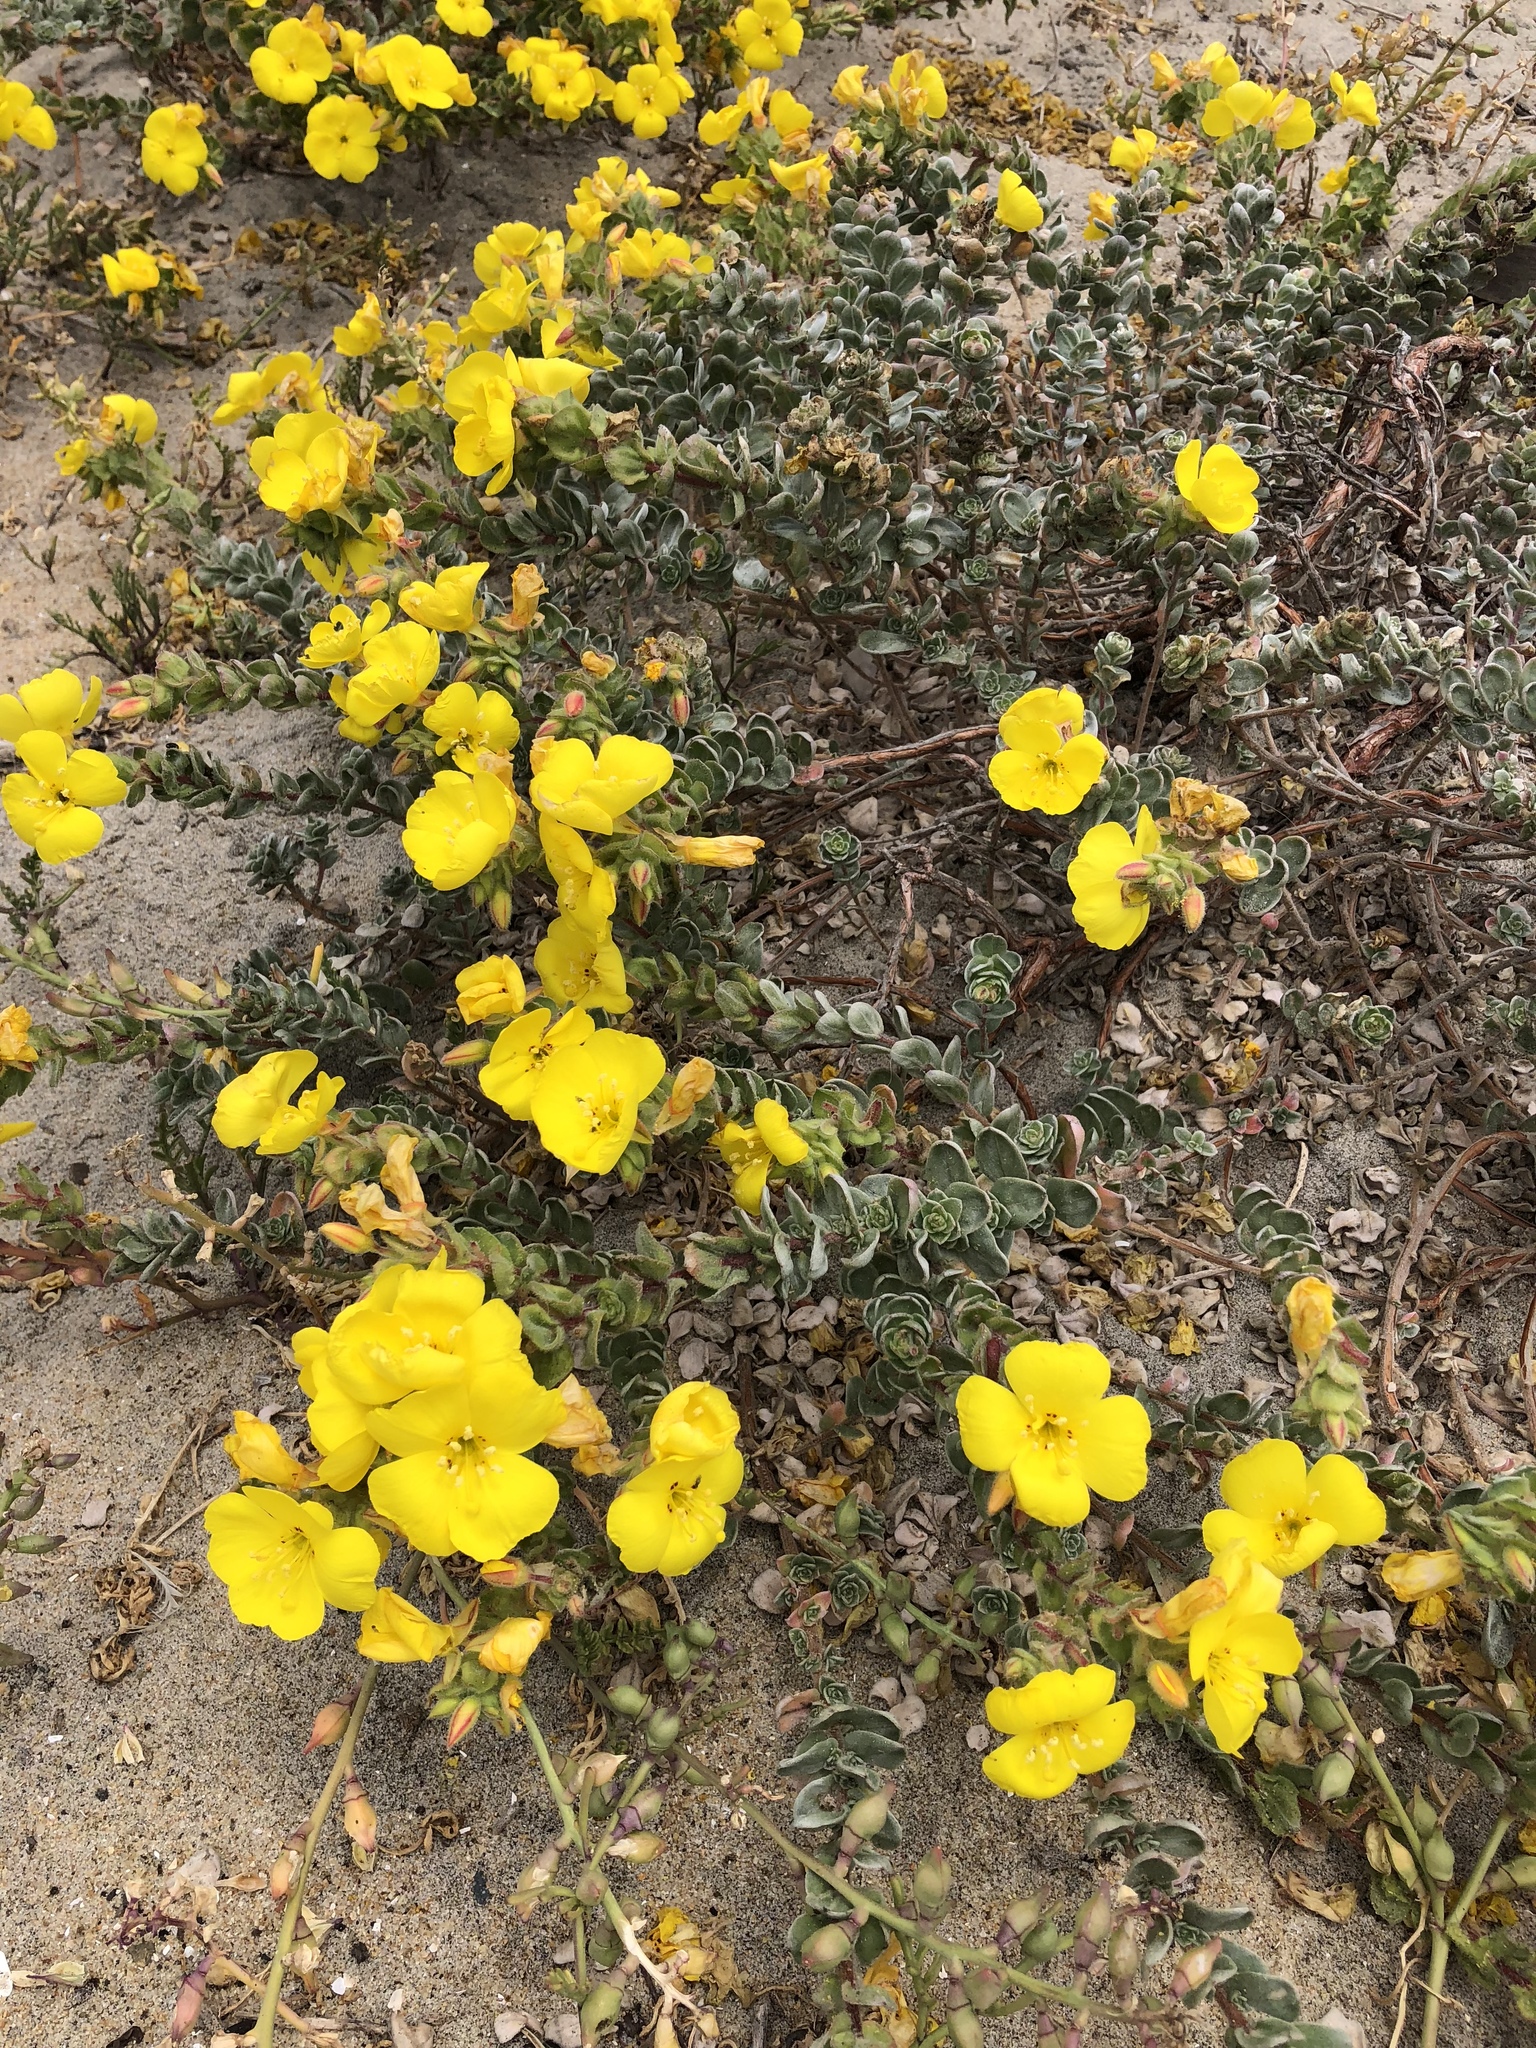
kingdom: Plantae
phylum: Tracheophyta
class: Magnoliopsida
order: Myrtales
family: Onagraceae
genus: Camissoniopsis
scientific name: Camissoniopsis cheiranthifolia
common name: Beach suncup
